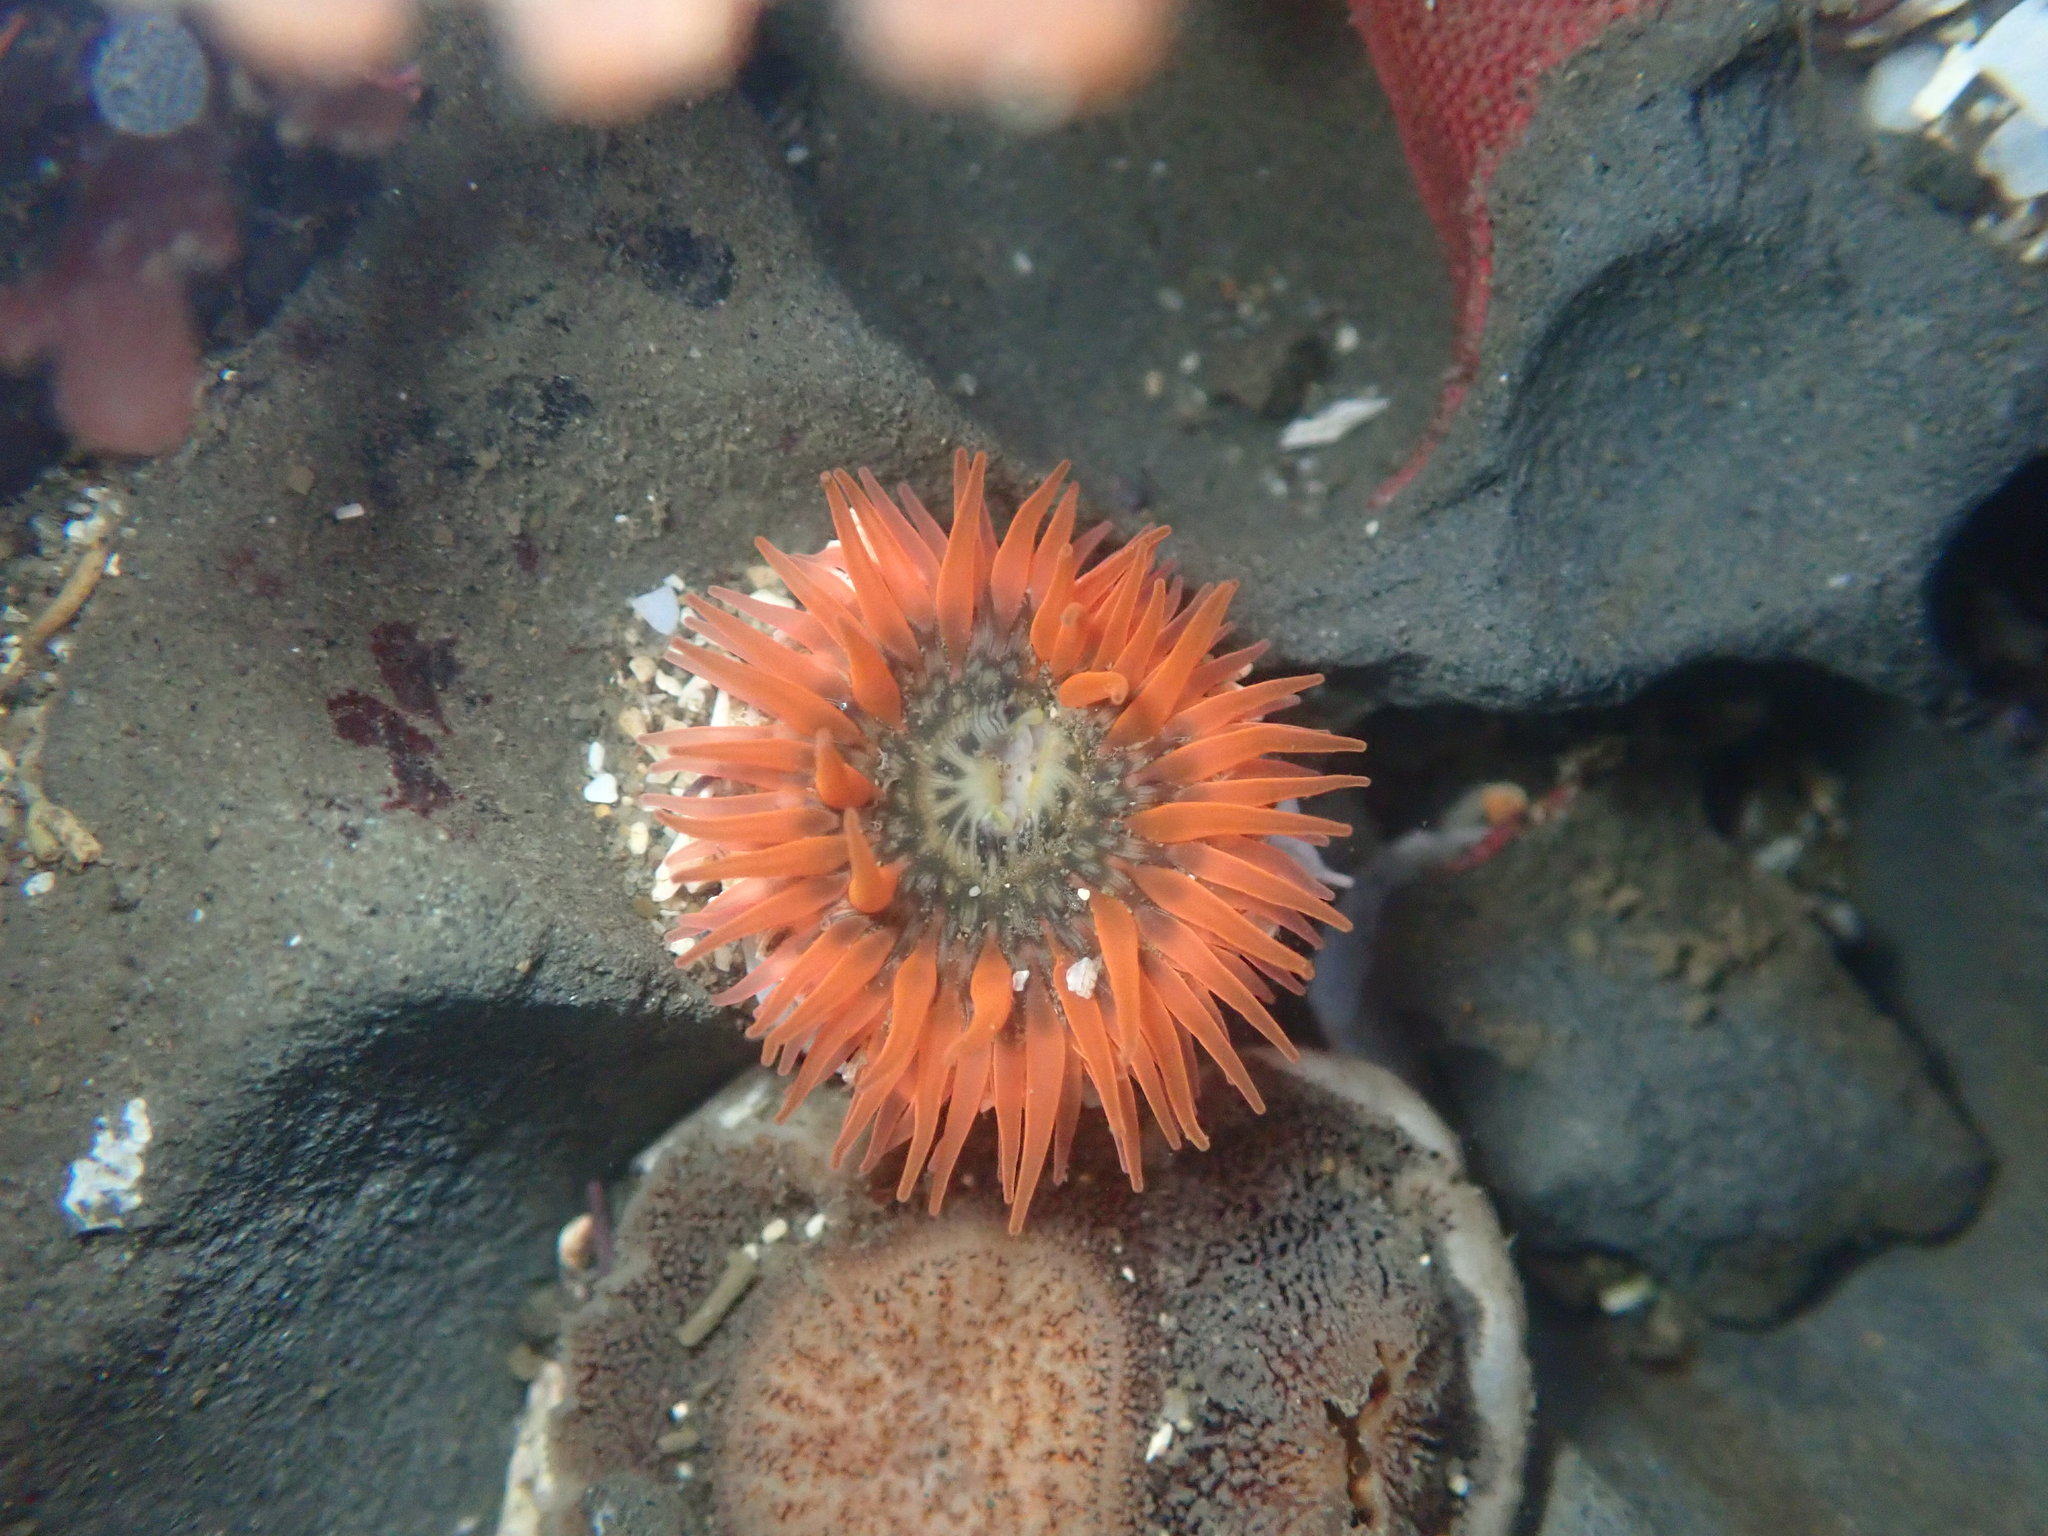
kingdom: Animalia
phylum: Cnidaria
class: Anthozoa
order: Actiniaria
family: Actiniidae
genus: Anthopleura
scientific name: Anthopleura artemisia
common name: Buried sea anemone
